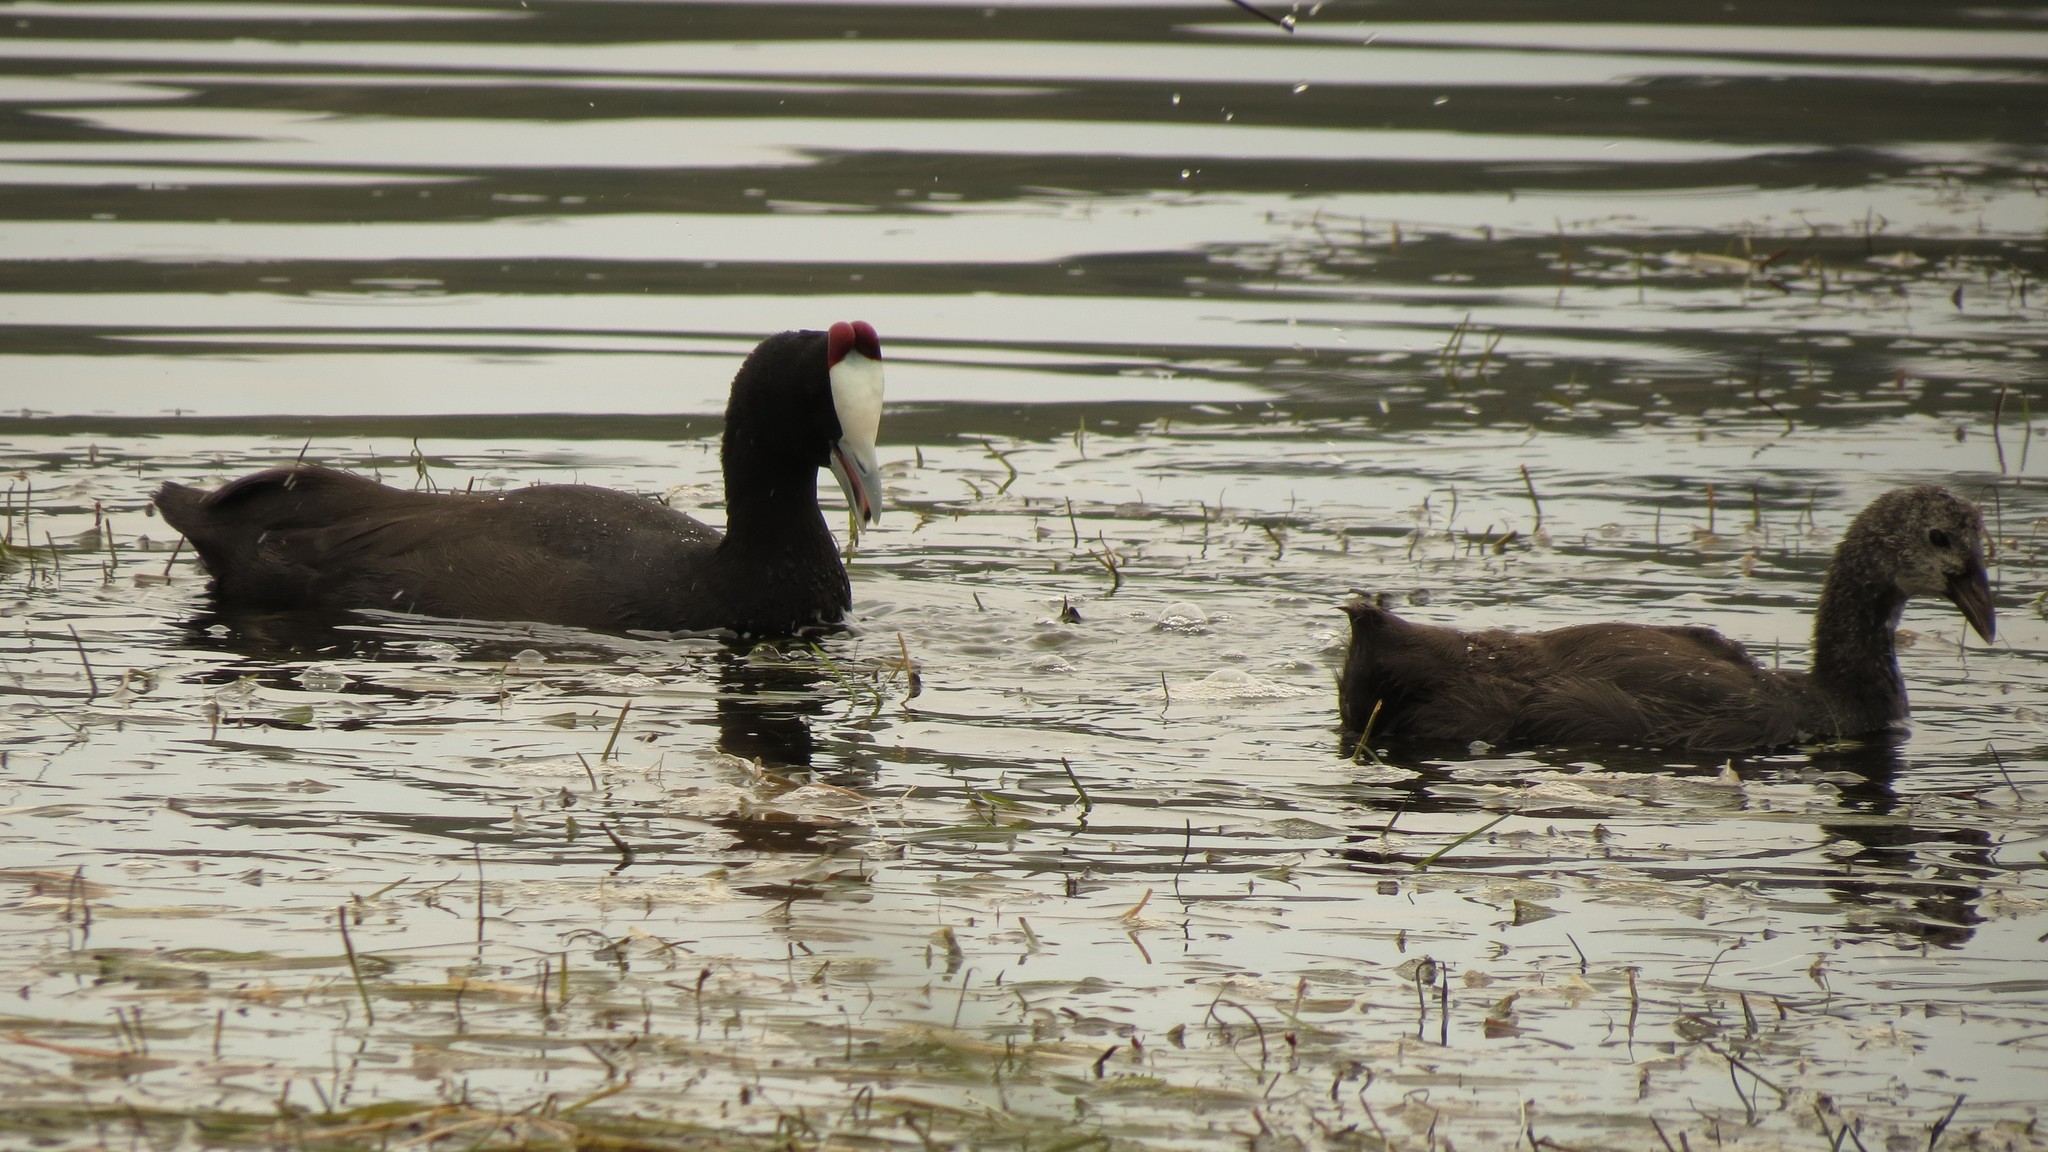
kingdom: Animalia
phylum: Chordata
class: Aves
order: Gruiformes
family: Rallidae
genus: Fulica
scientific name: Fulica cristata
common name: Red-knobbed coot
